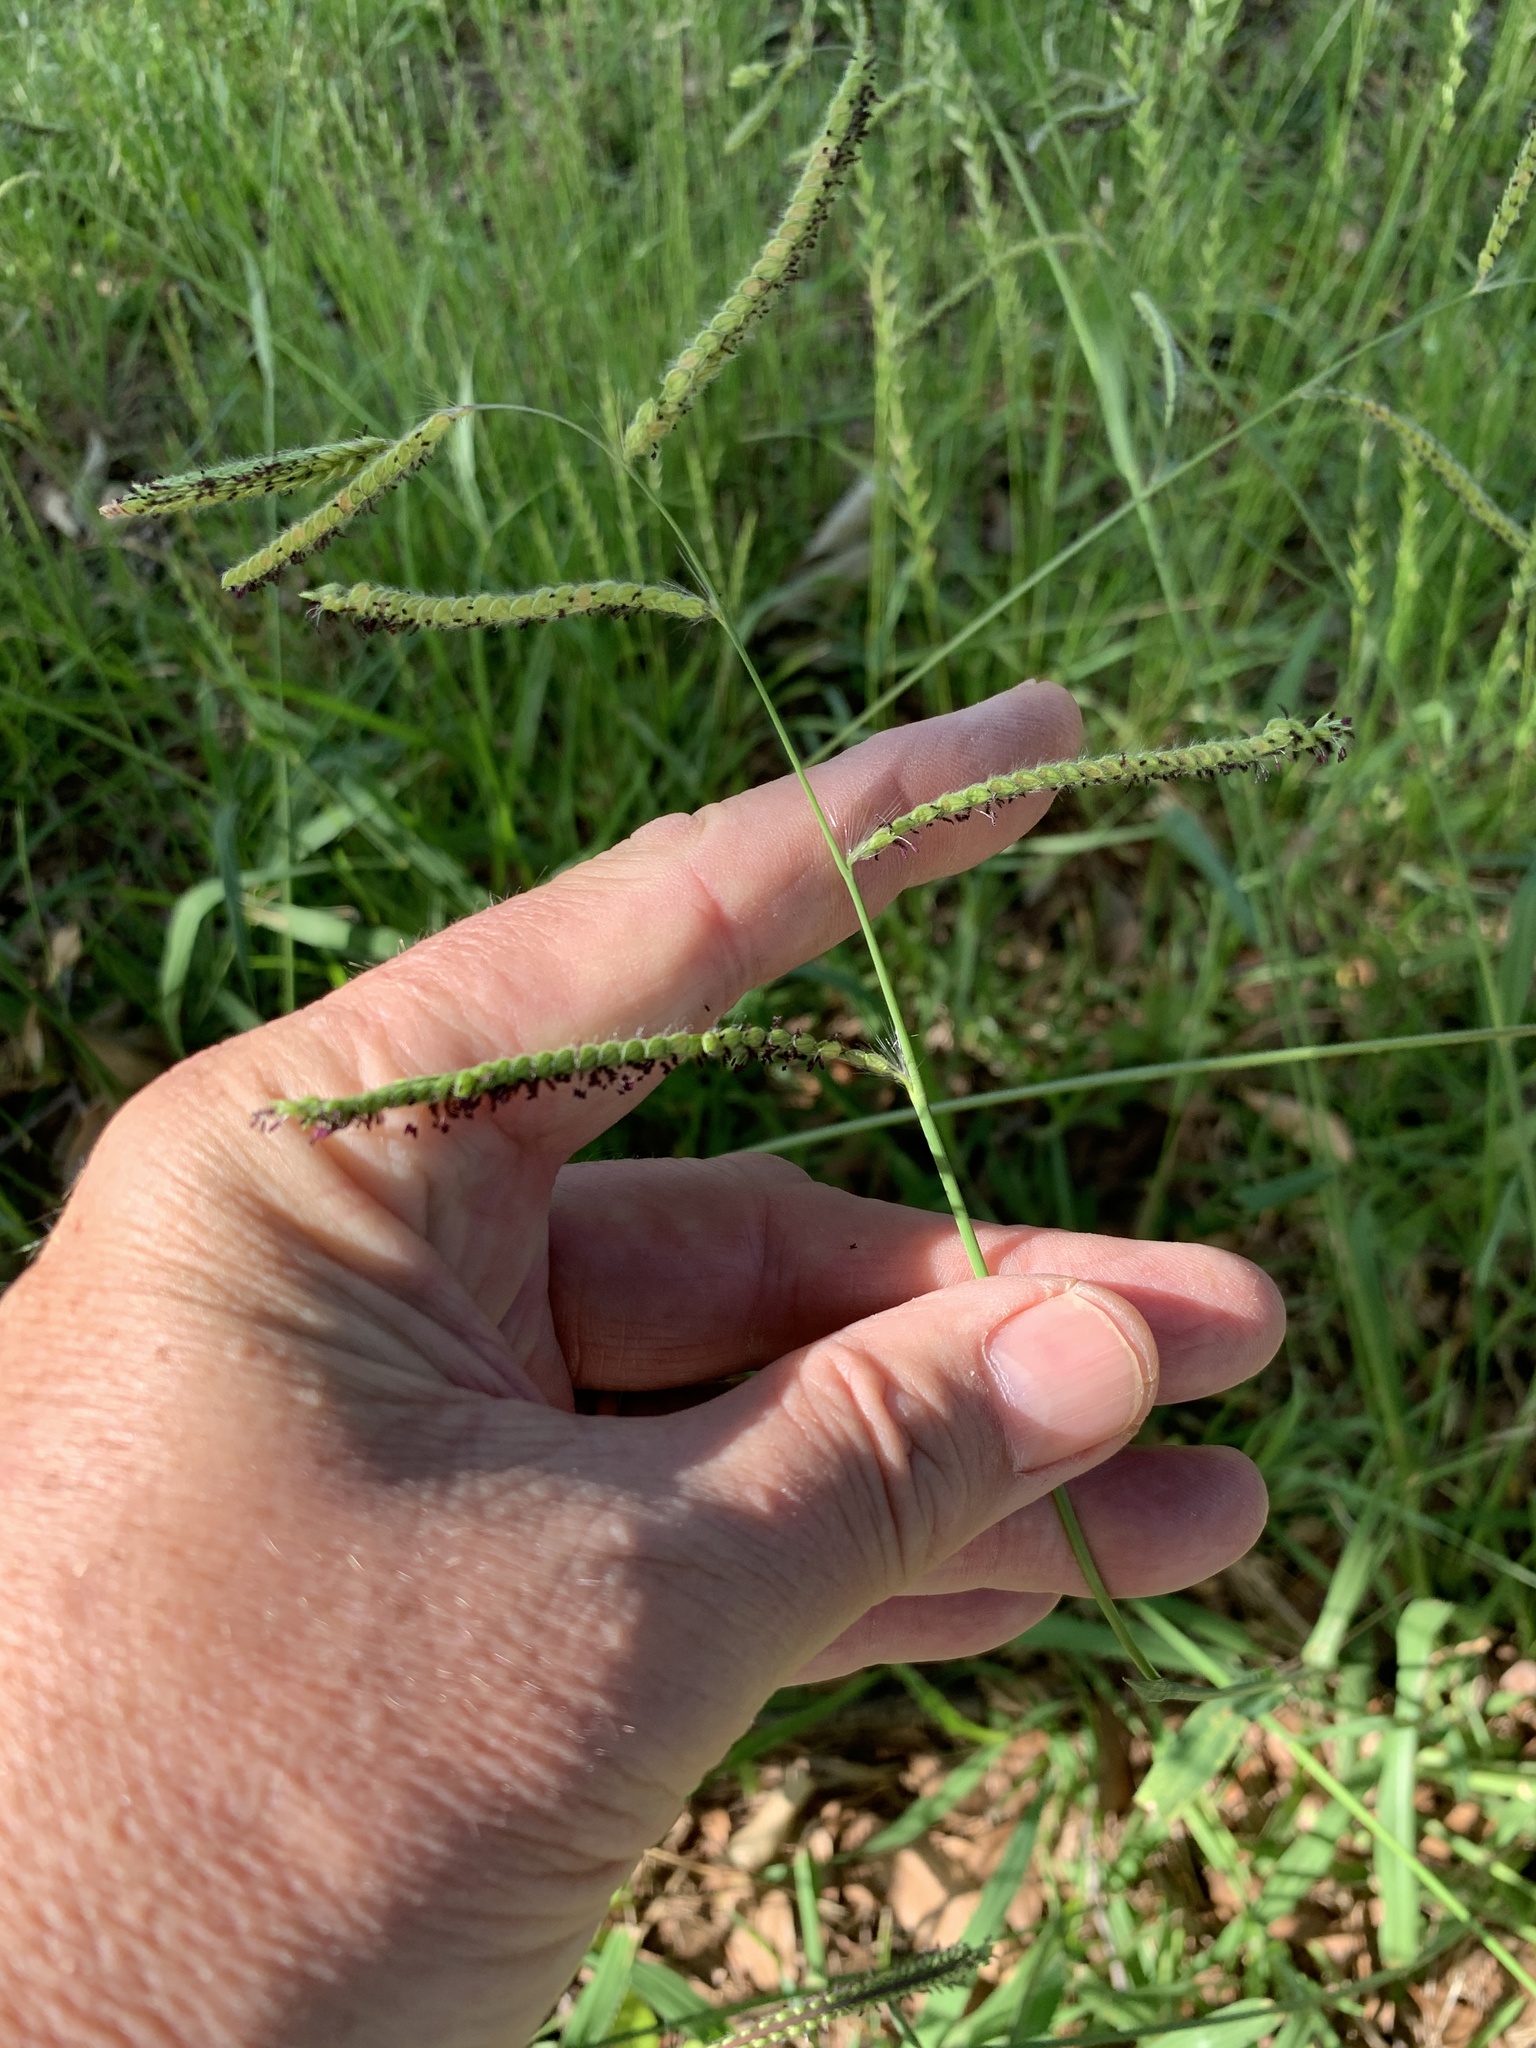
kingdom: Plantae
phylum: Tracheophyta
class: Liliopsida
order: Poales
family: Poaceae
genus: Paspalum
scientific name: Paspalum dilatatum
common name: Dallisgrass
